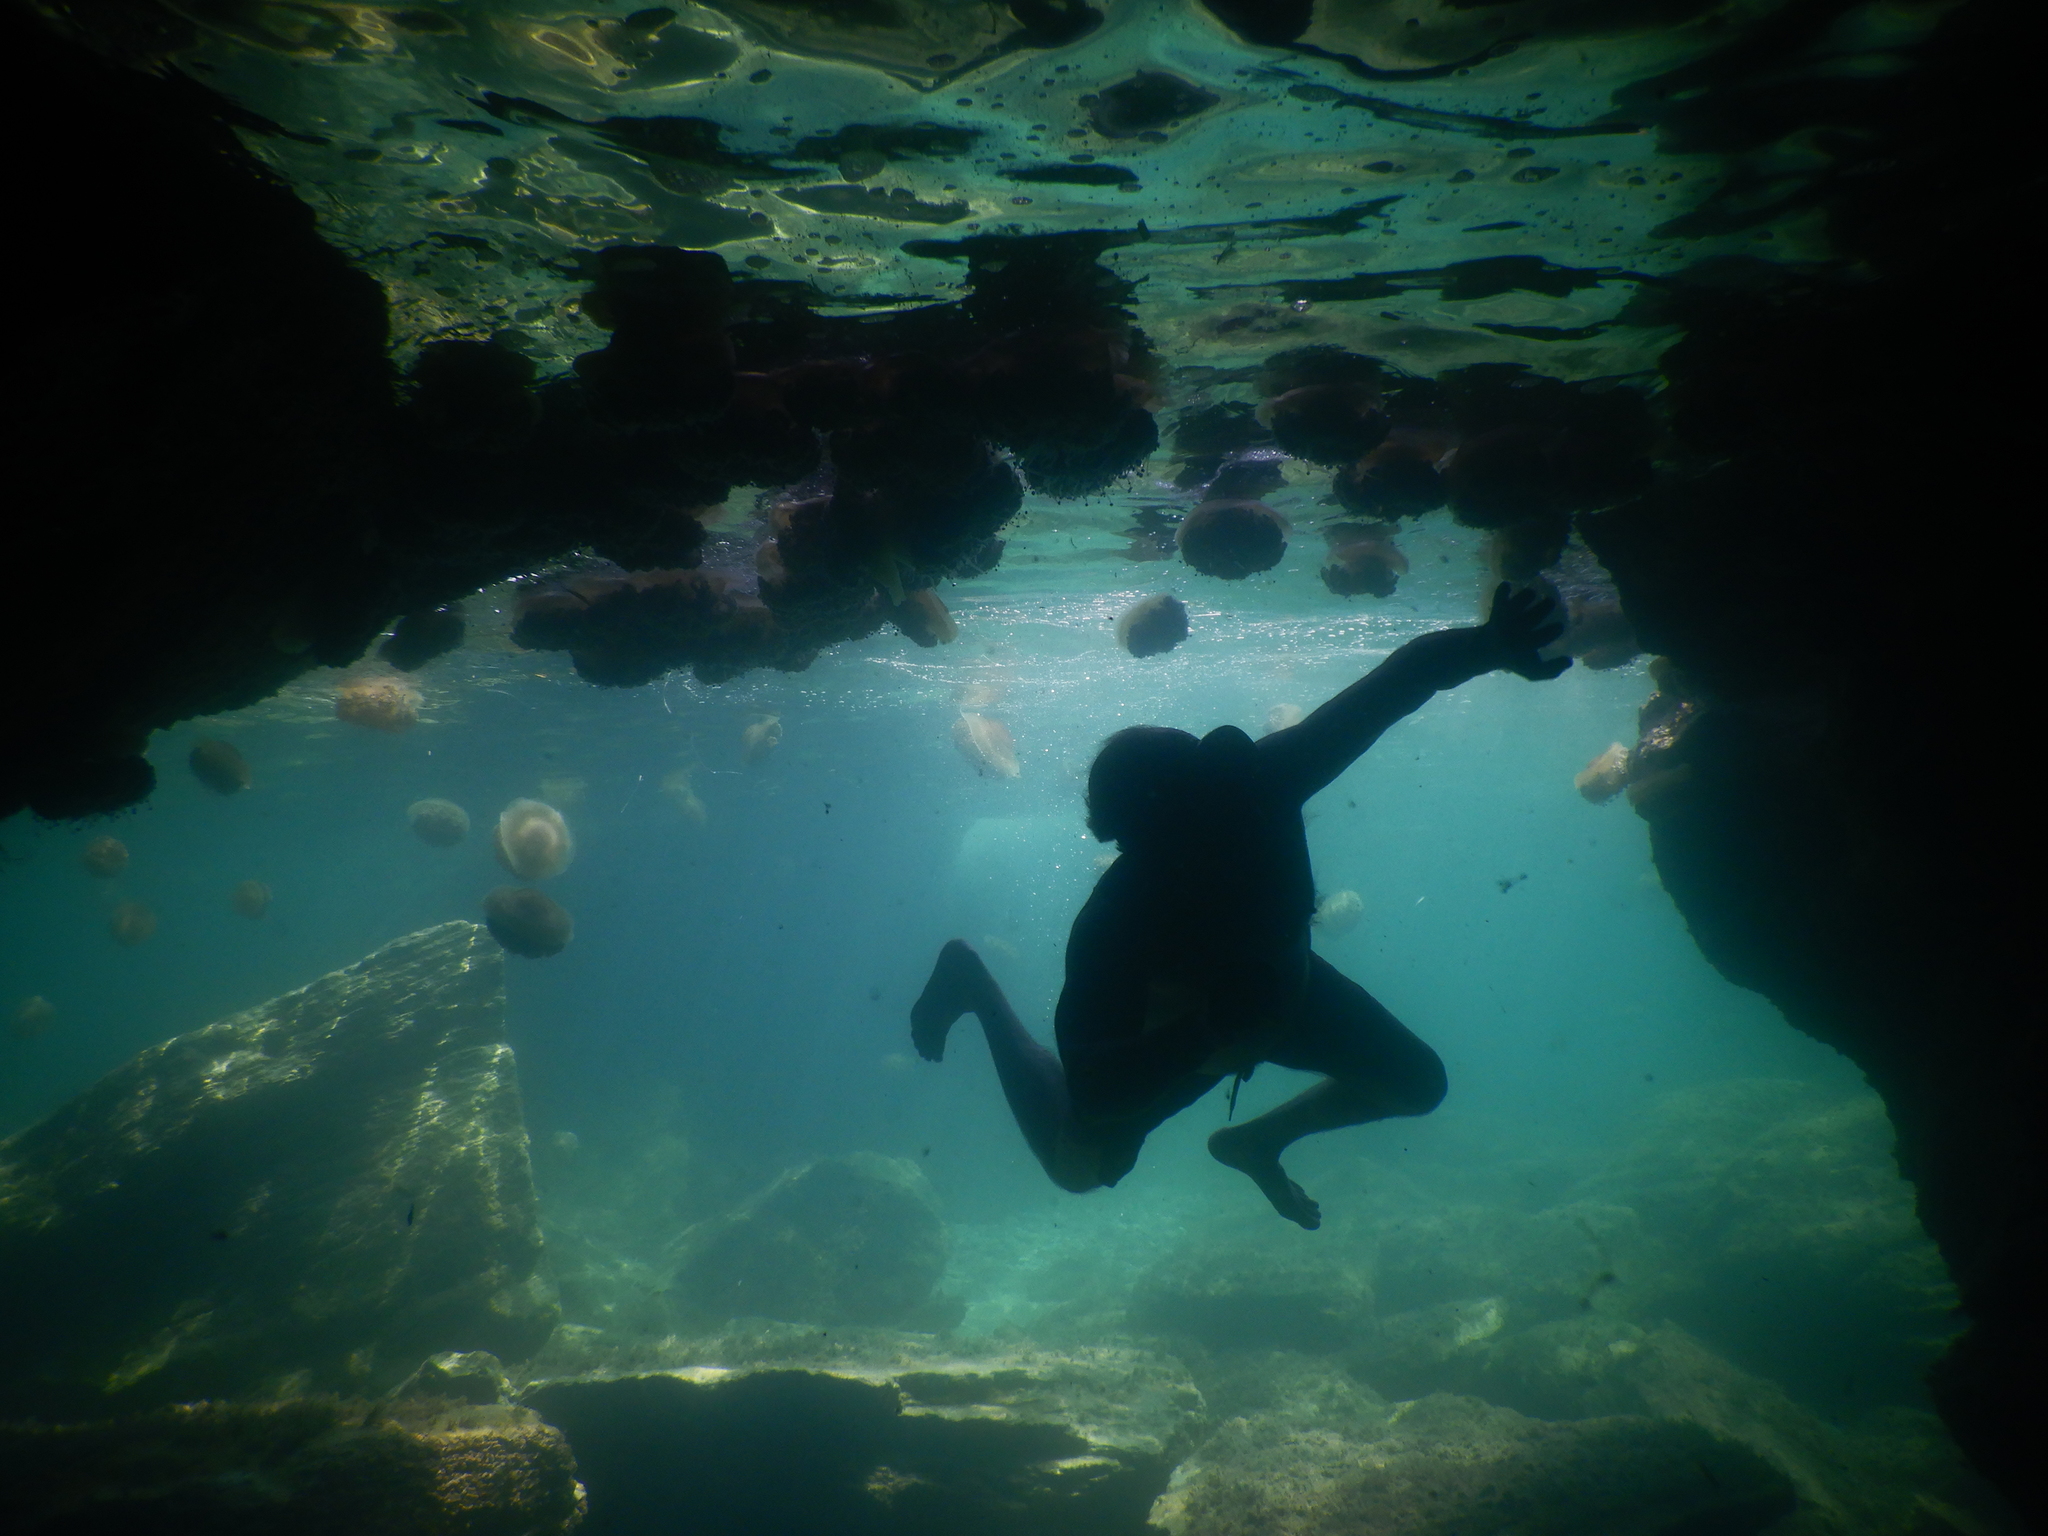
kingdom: Animalia
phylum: Cnidaria
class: Scyphozoa
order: Rhizostomeae
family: Cepheidae
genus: Cotylorhiza
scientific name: Cotylorhiza tuberculata
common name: Mediterranean jelly
